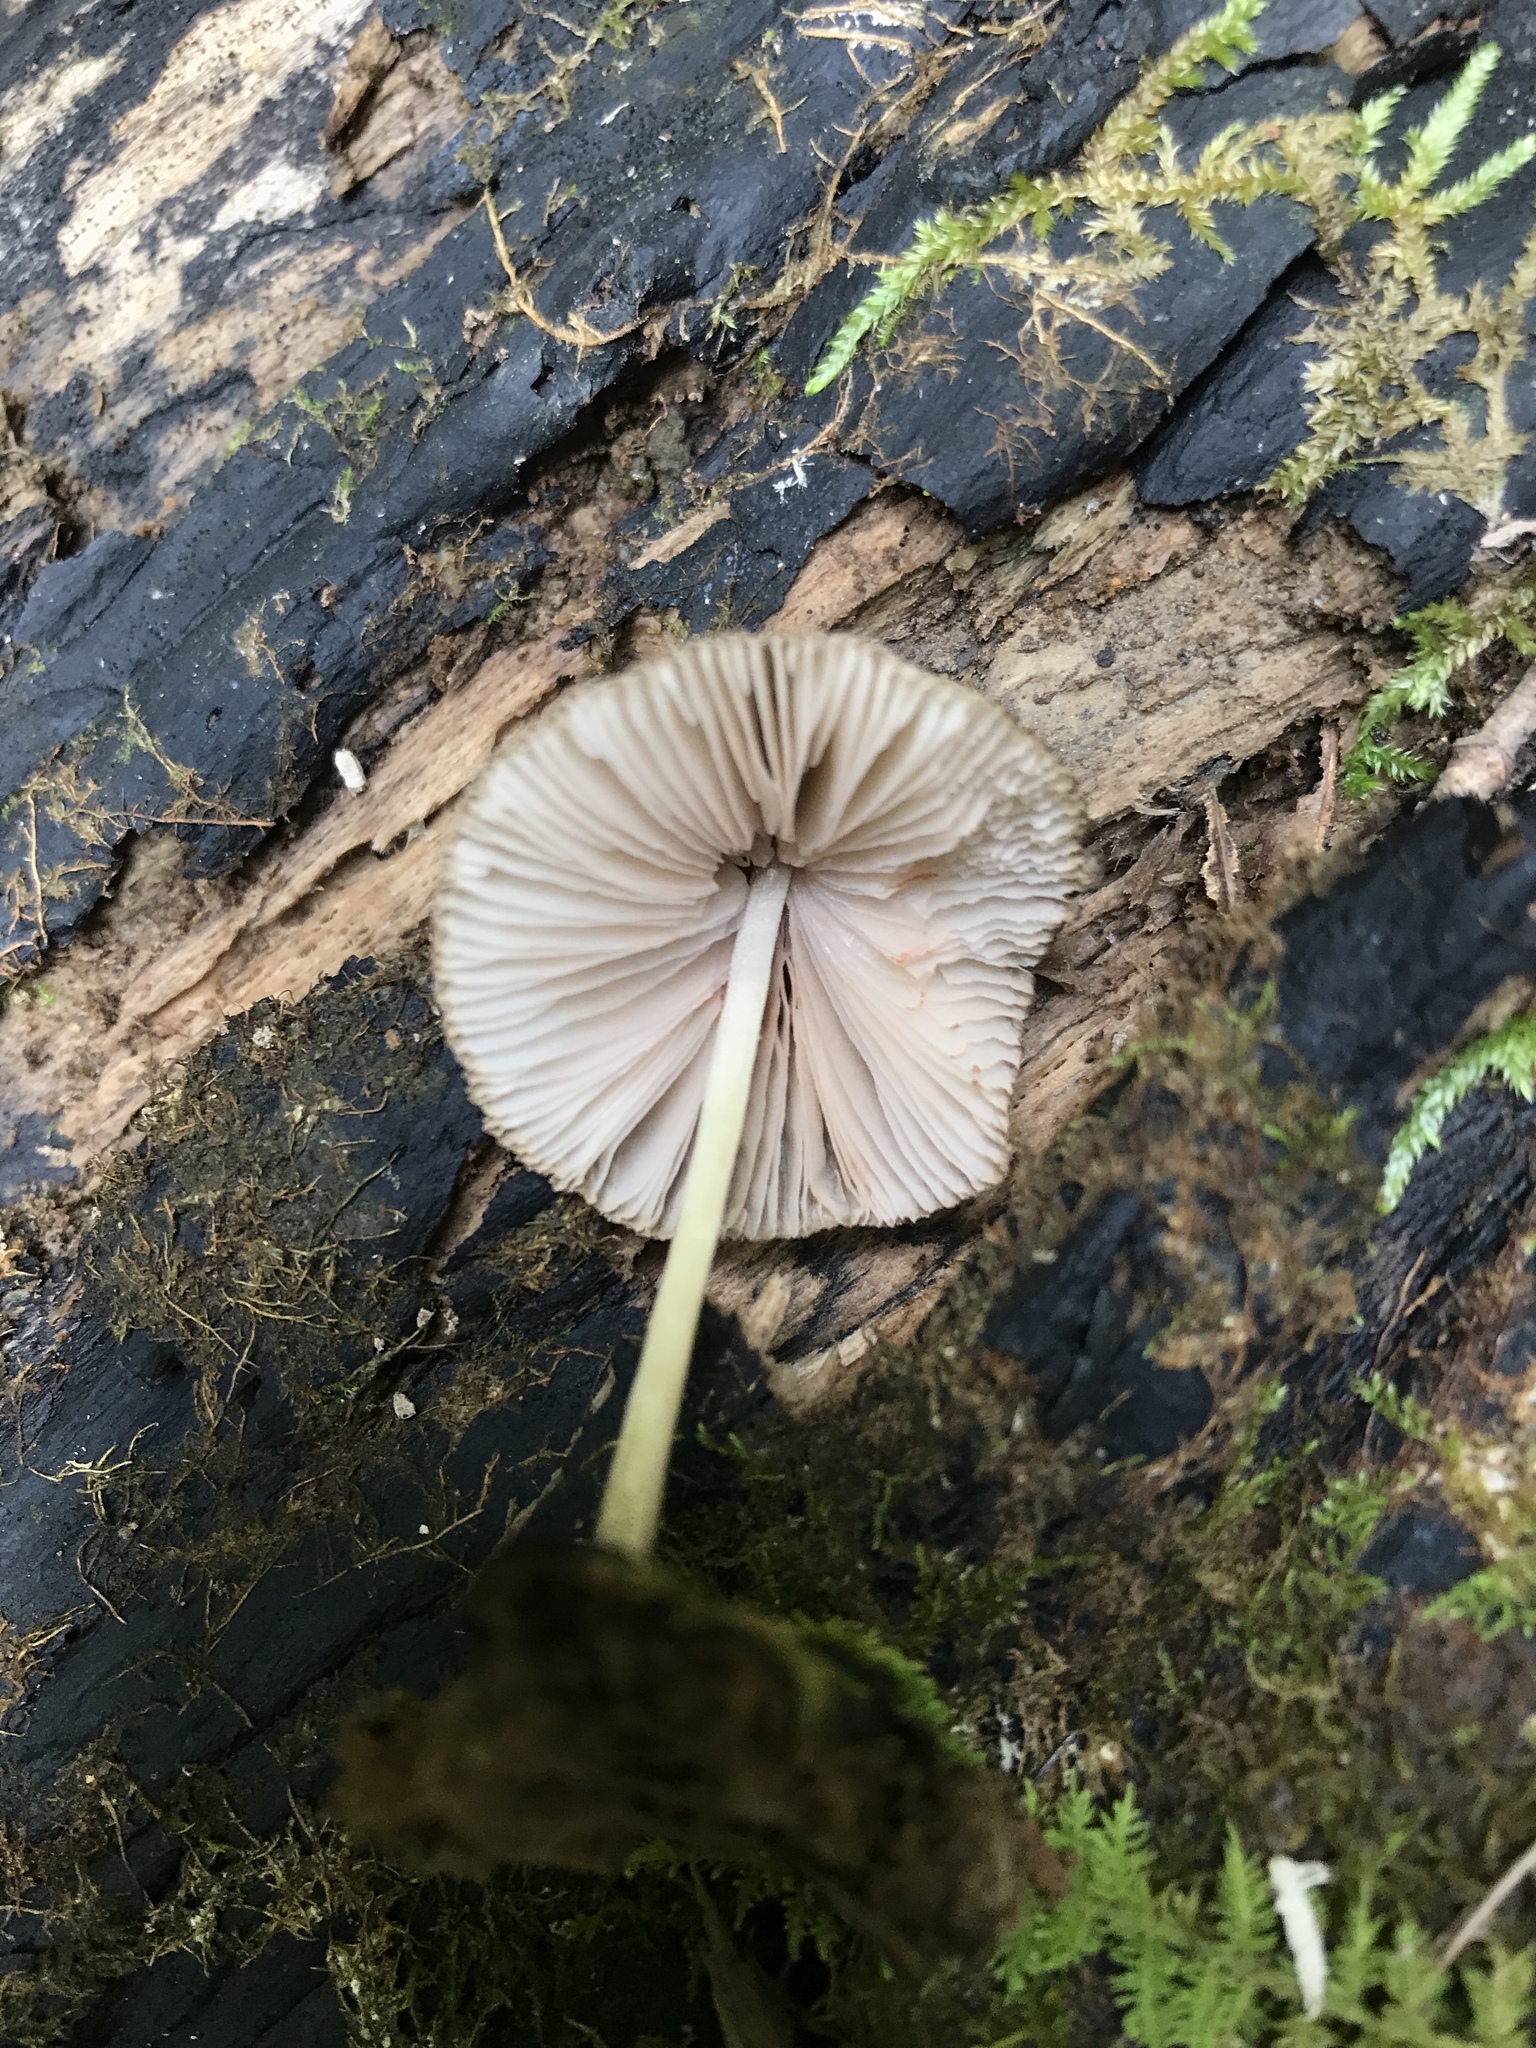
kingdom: Fungi
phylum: Basidiomycota
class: Agaricomycetes
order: Agaricales
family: Pluteaceae
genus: Pluteus
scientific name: Pluteus longistriatus
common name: Pleated pluteus
